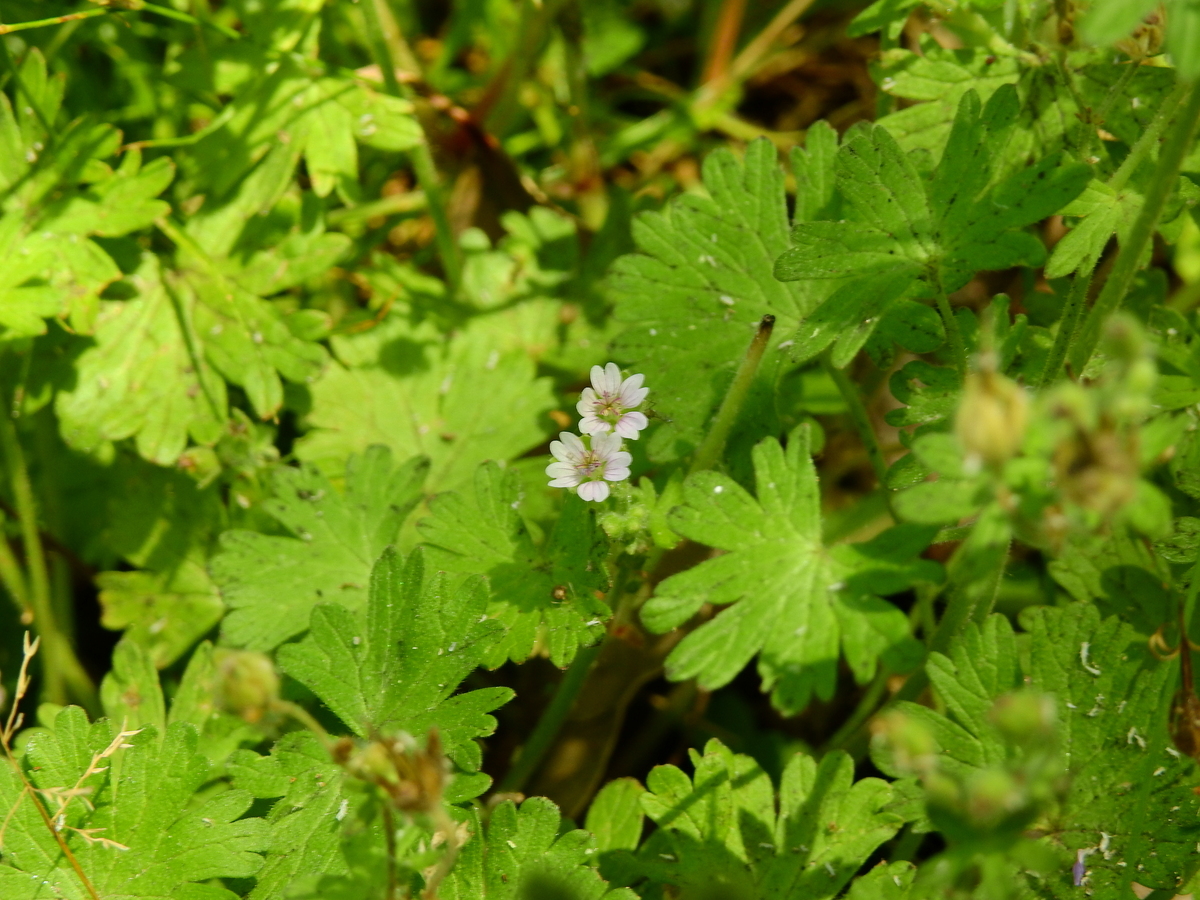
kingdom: Plantae
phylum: Tracheophyta
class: Magnoliopsida
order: Geraniales
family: Geraniaceae
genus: Geranium
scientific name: Geranium molle
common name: Dove's-foot crane's-bill
